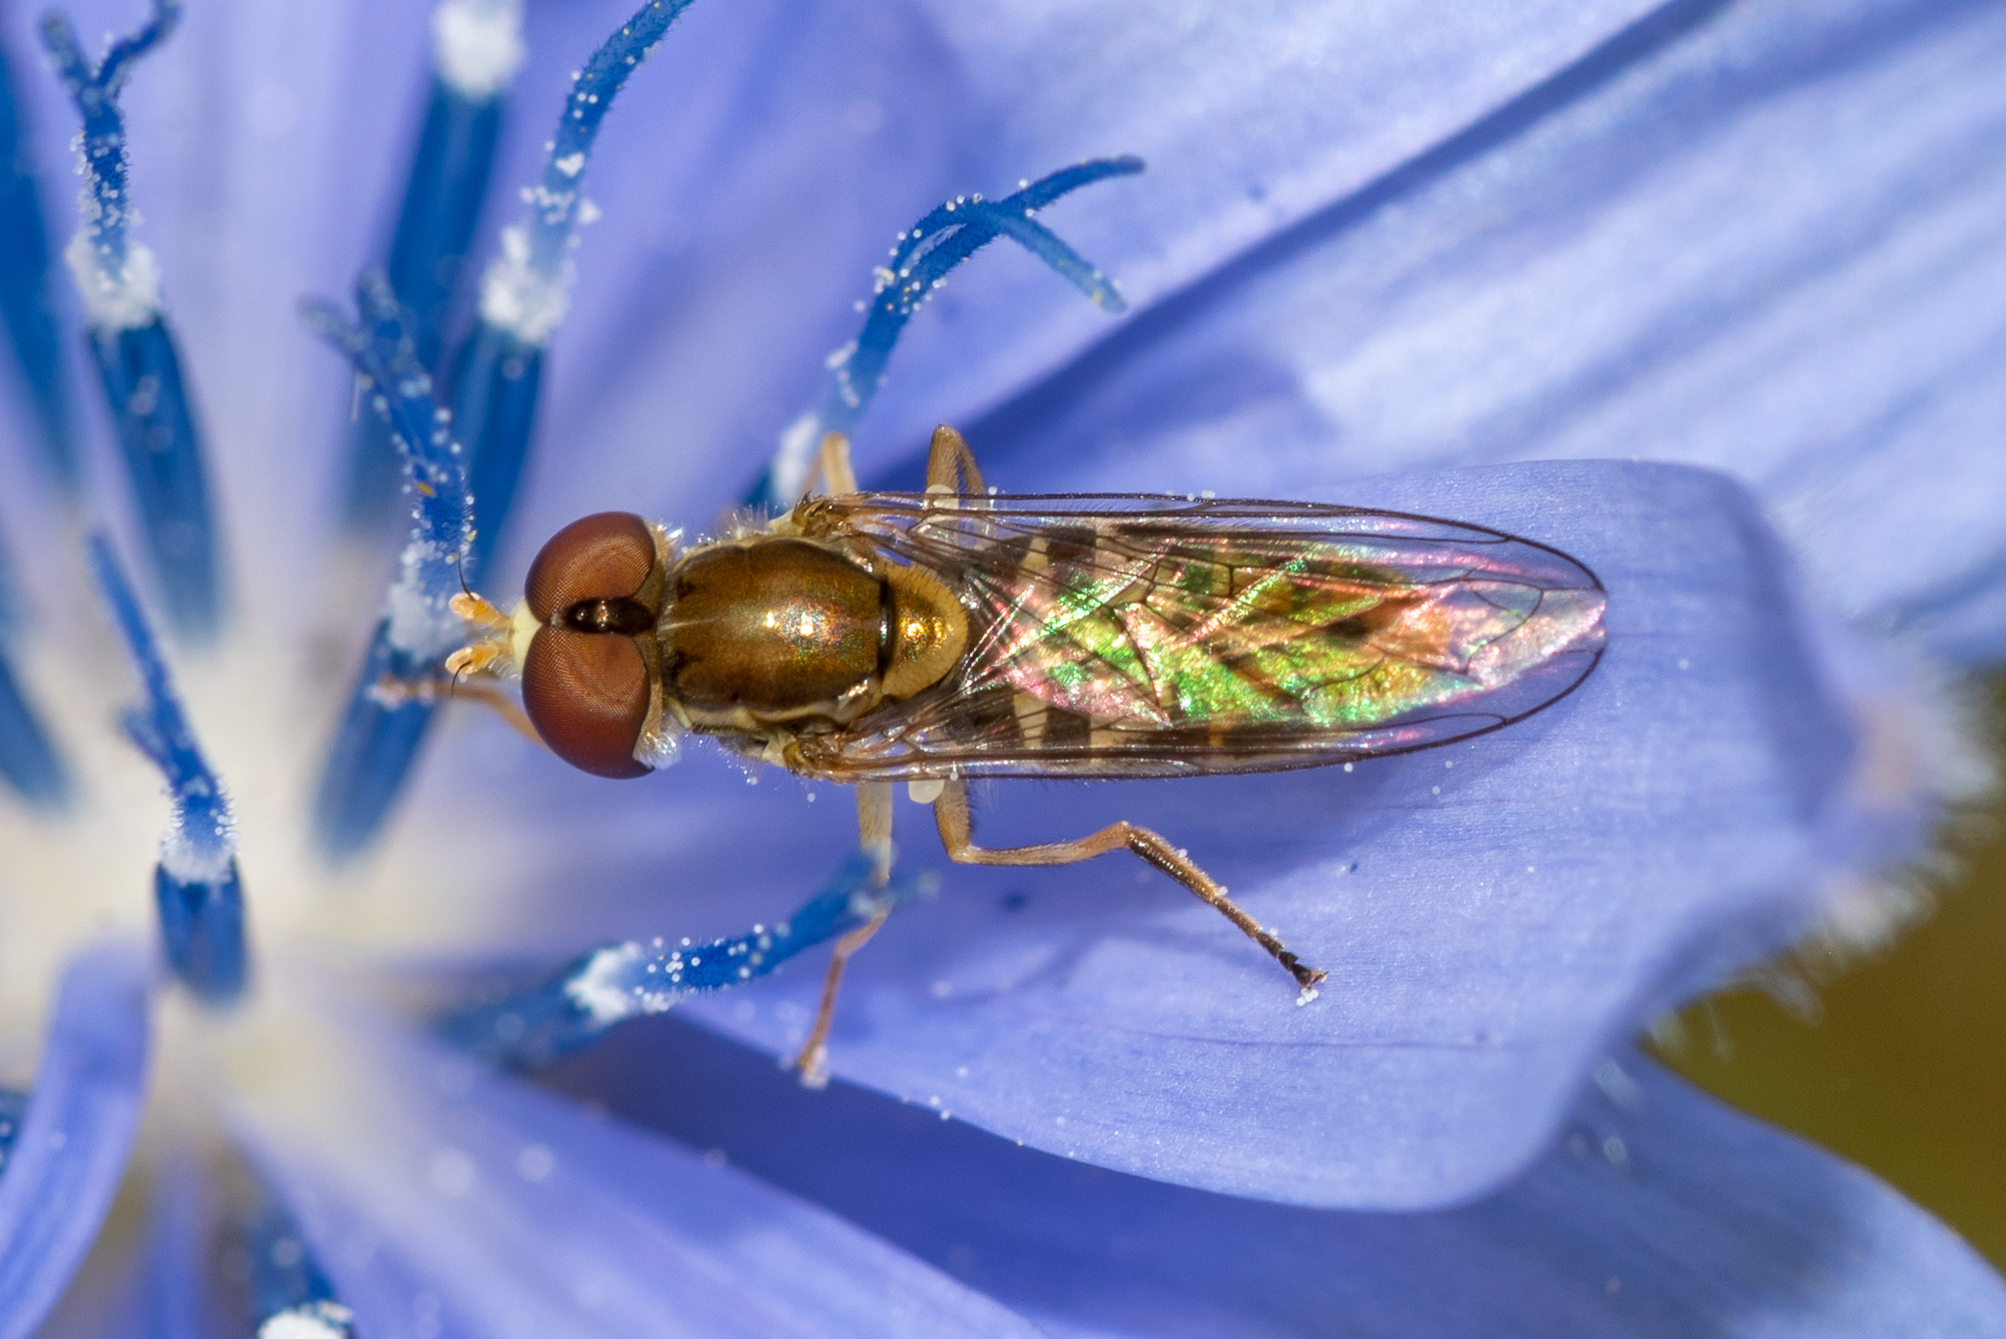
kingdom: Animalia
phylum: Arthropoda
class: Insecta
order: Diptera
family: Syrphidae
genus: Toxomerus
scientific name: Toxomerus marginatus
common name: Syrphid fly
